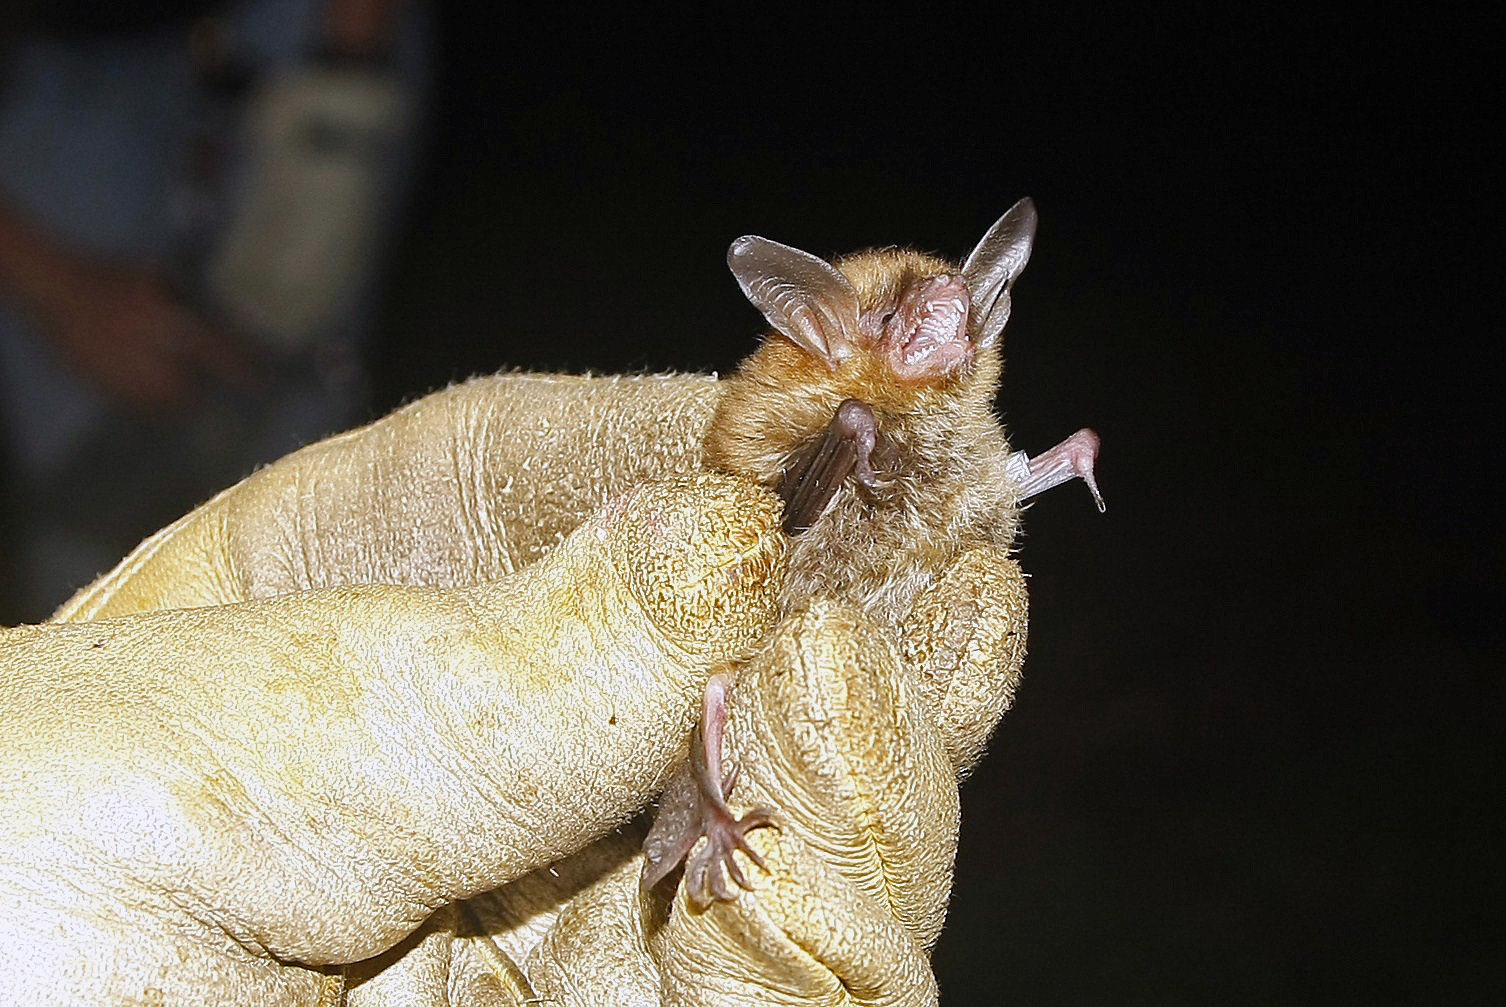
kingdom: Animalia
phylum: Chordata
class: Mammalia
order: Chiroptera
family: Vespertilionidae
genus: Myotis
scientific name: Myotis septentrionalis
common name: Northern myotis
